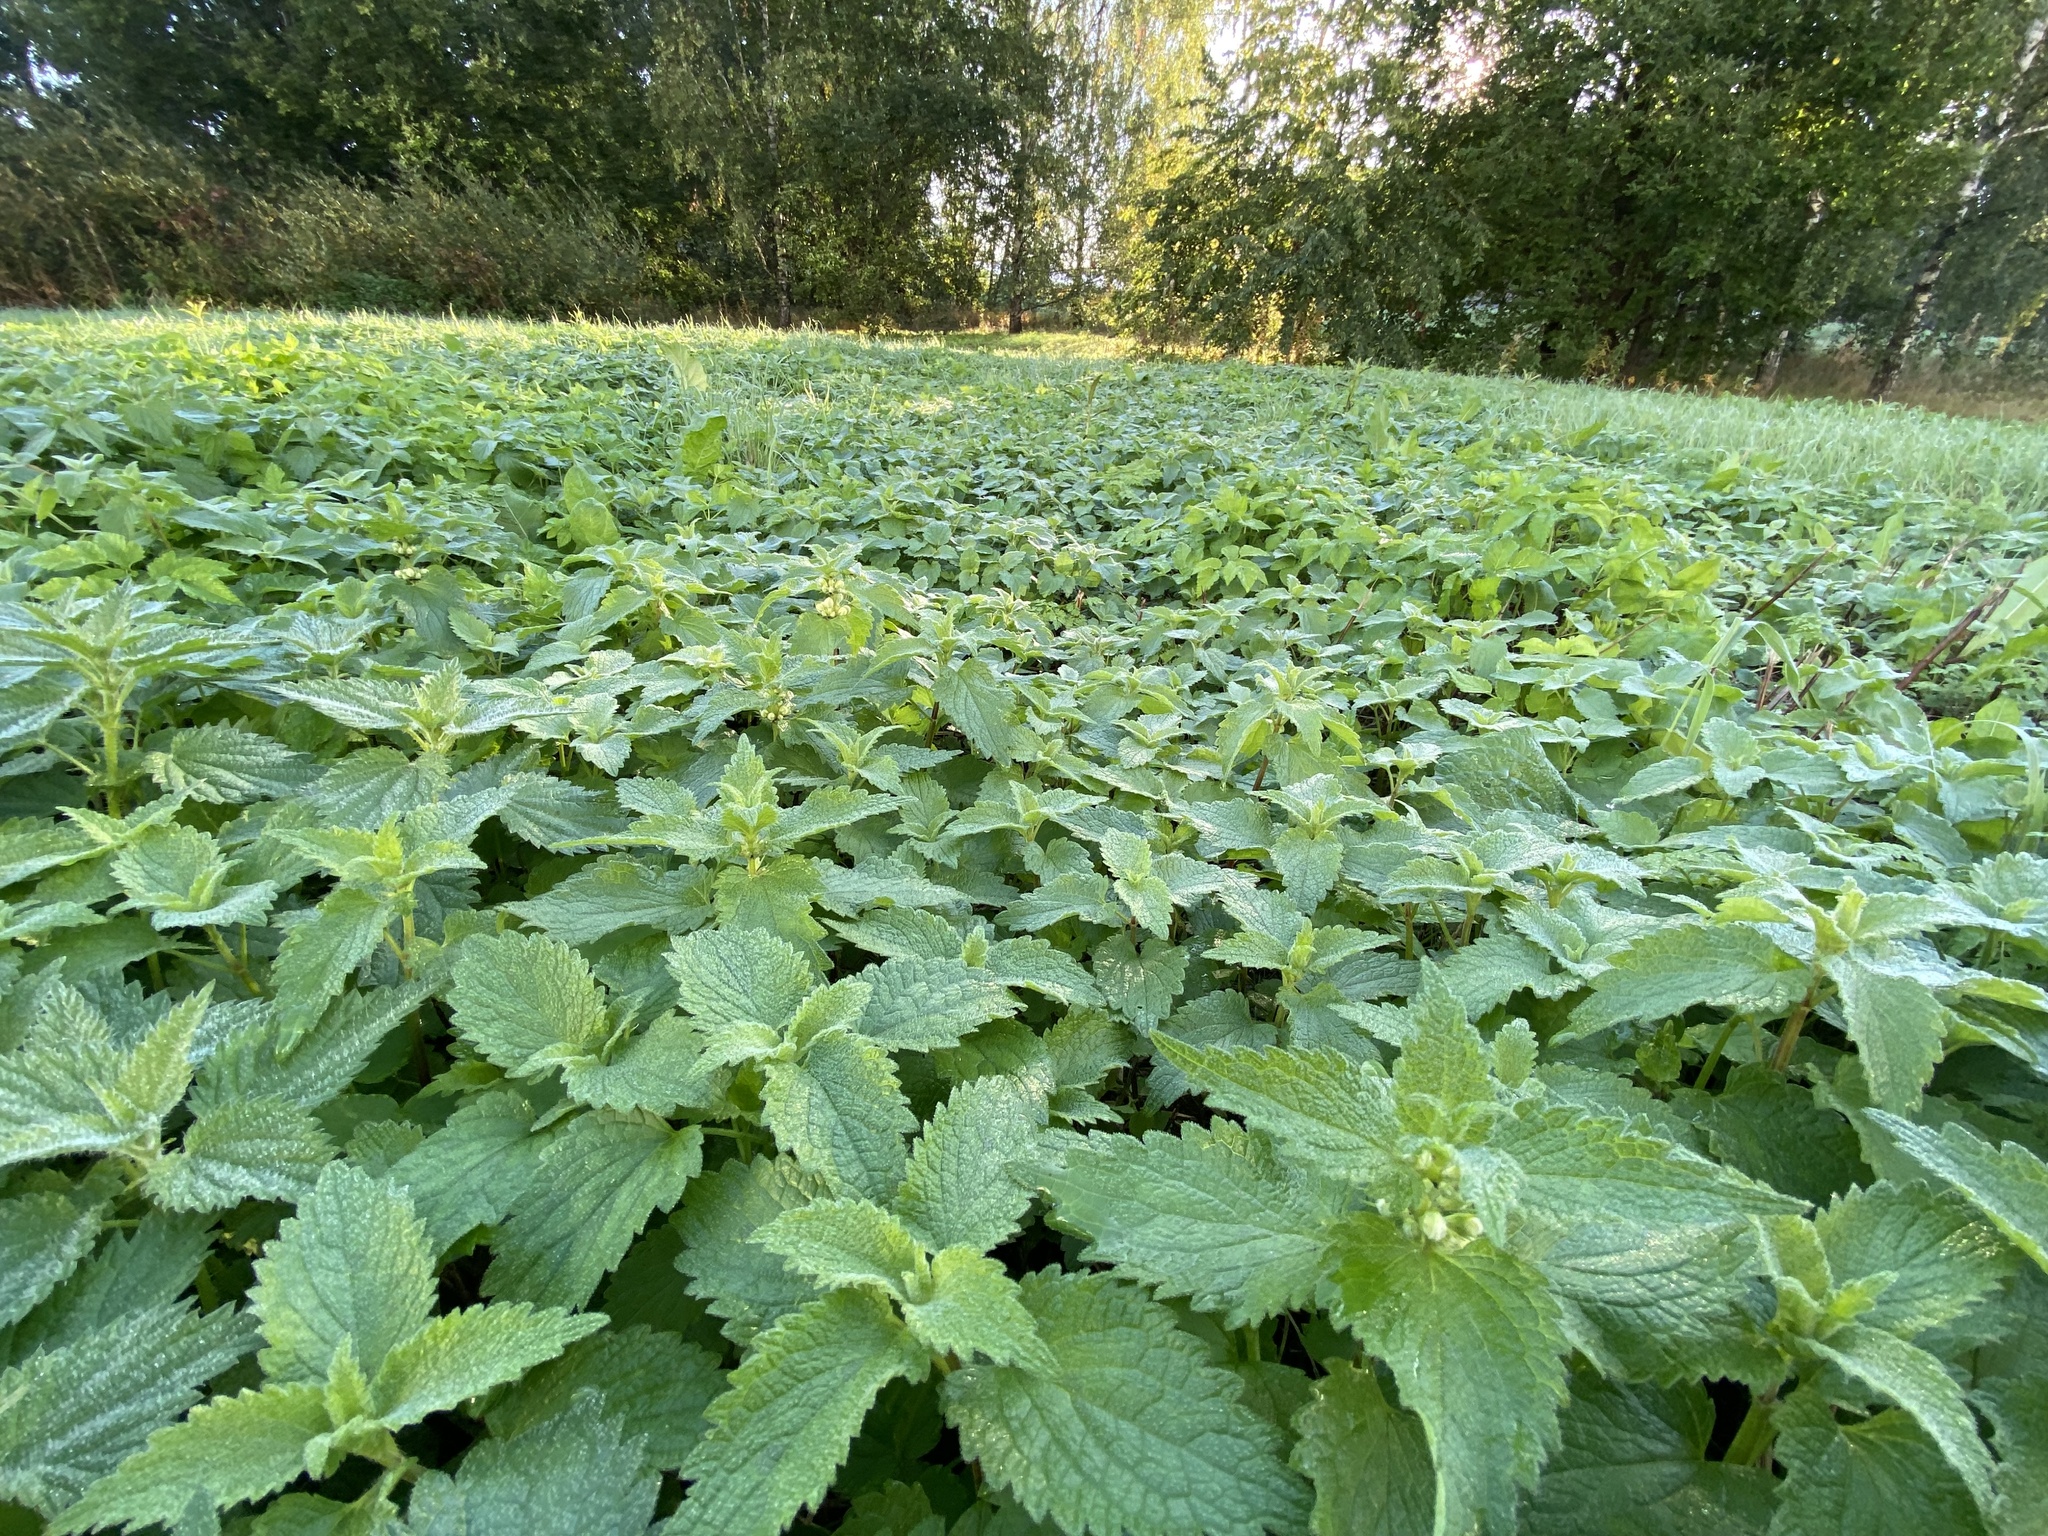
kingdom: Plantae
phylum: Tracheophyta
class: Magnoliopsida
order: Lamiales
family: Lamiaceae
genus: Lamium
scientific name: Lamium album
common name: White dead-nettle
